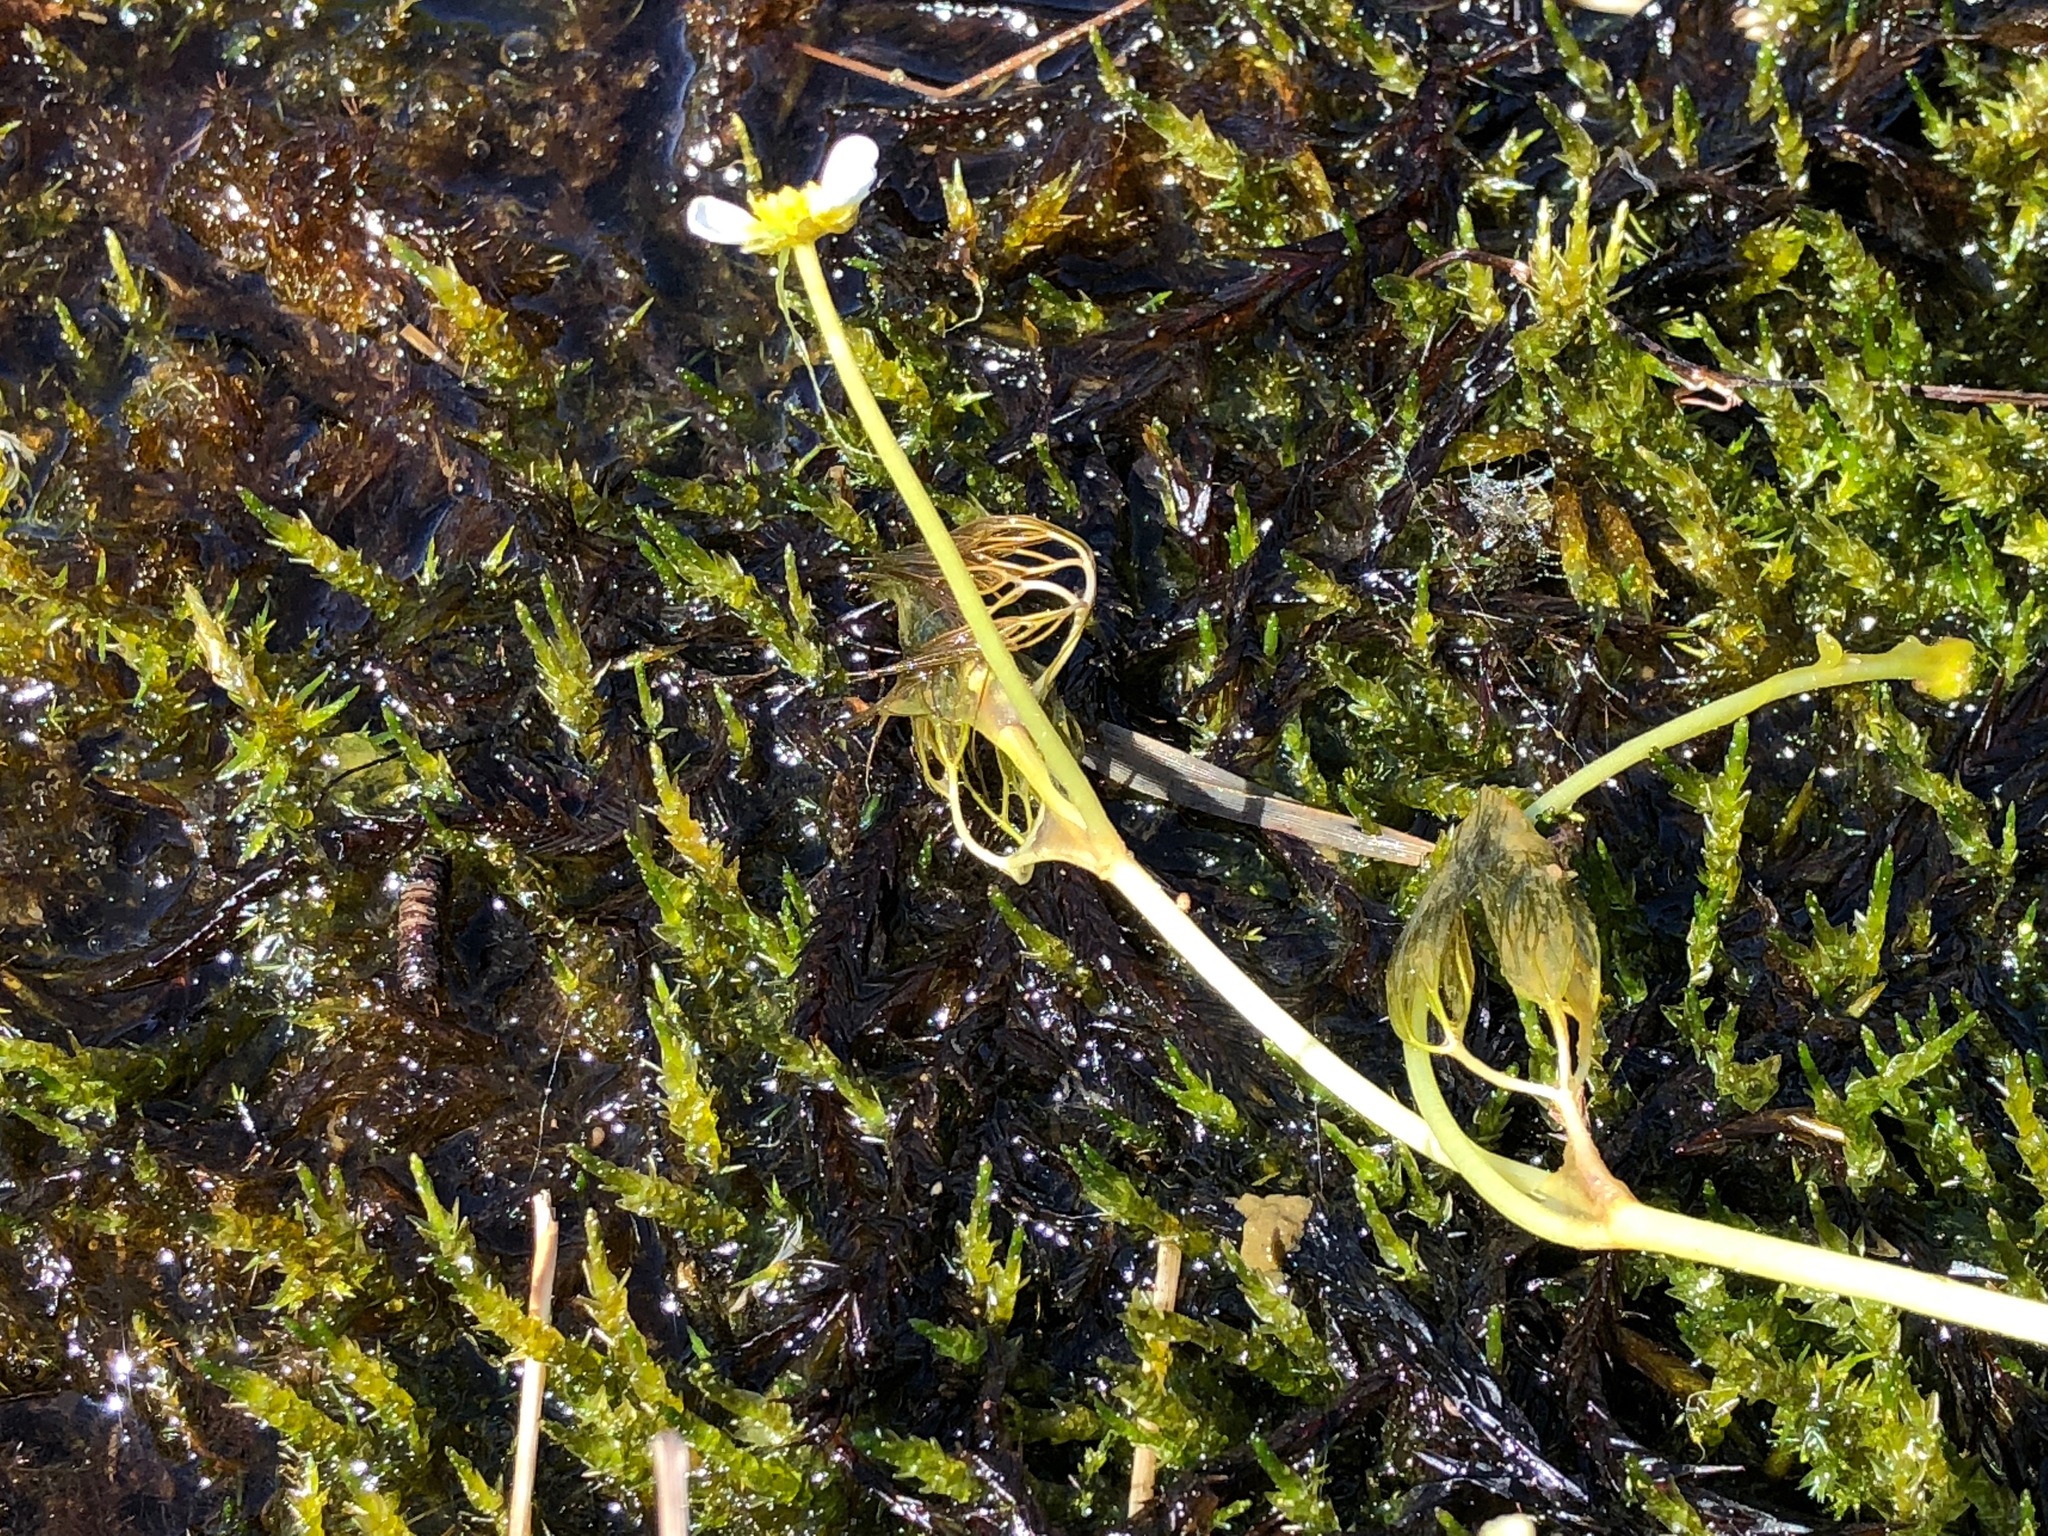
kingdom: Plantae
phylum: Tracheophyta
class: Magnoliopsida
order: Ranunculales
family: Ranunculaceae
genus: Ranunculus
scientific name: Ranunculus trichophyllus
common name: Thread-leaved water-crowfoot
